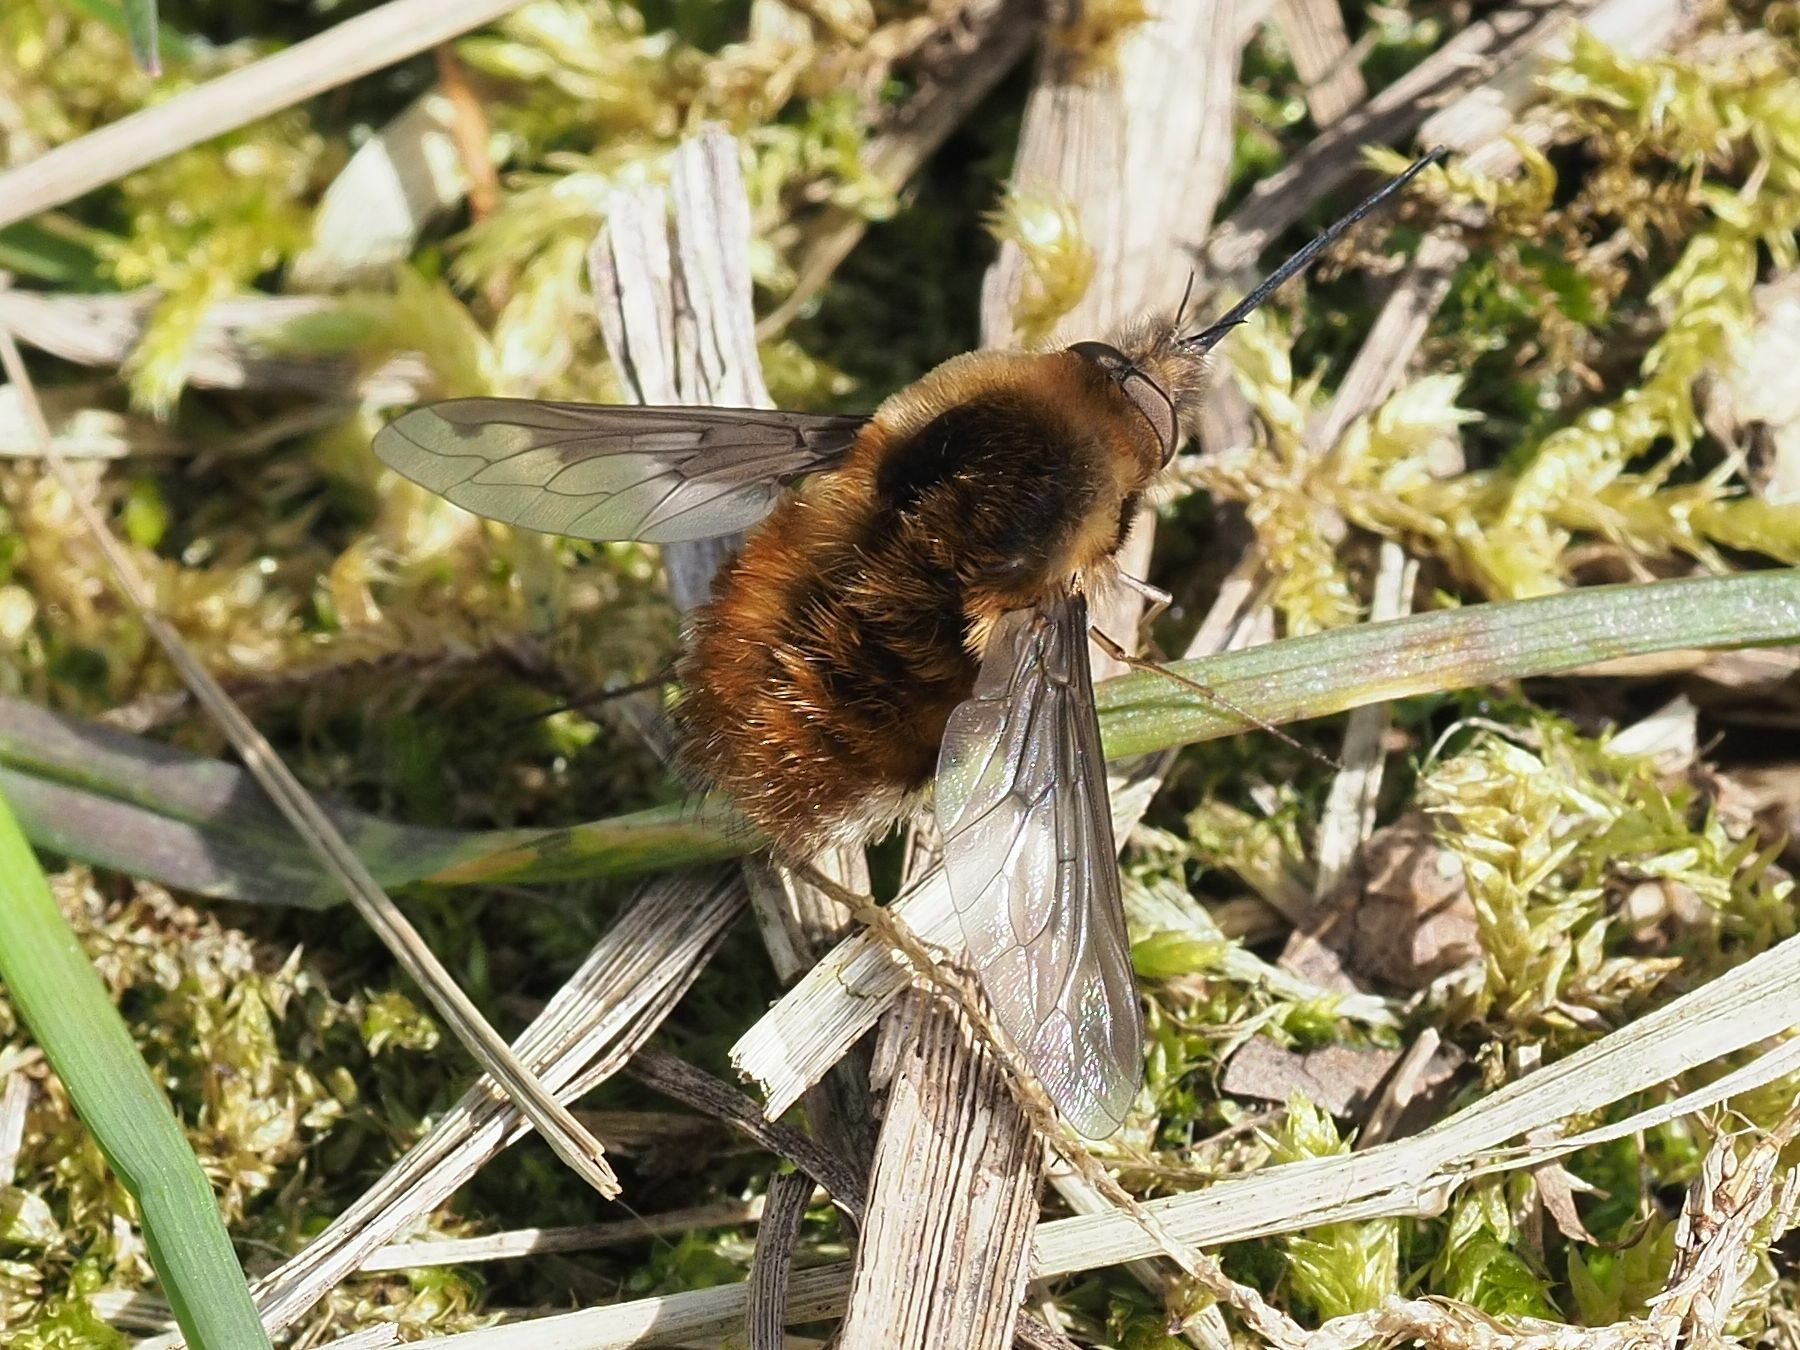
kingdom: Animalia
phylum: Arthropoda
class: Insecta
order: Diptera
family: Bombyliidae
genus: Bombylius
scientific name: Bombylius major
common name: Bee fly
